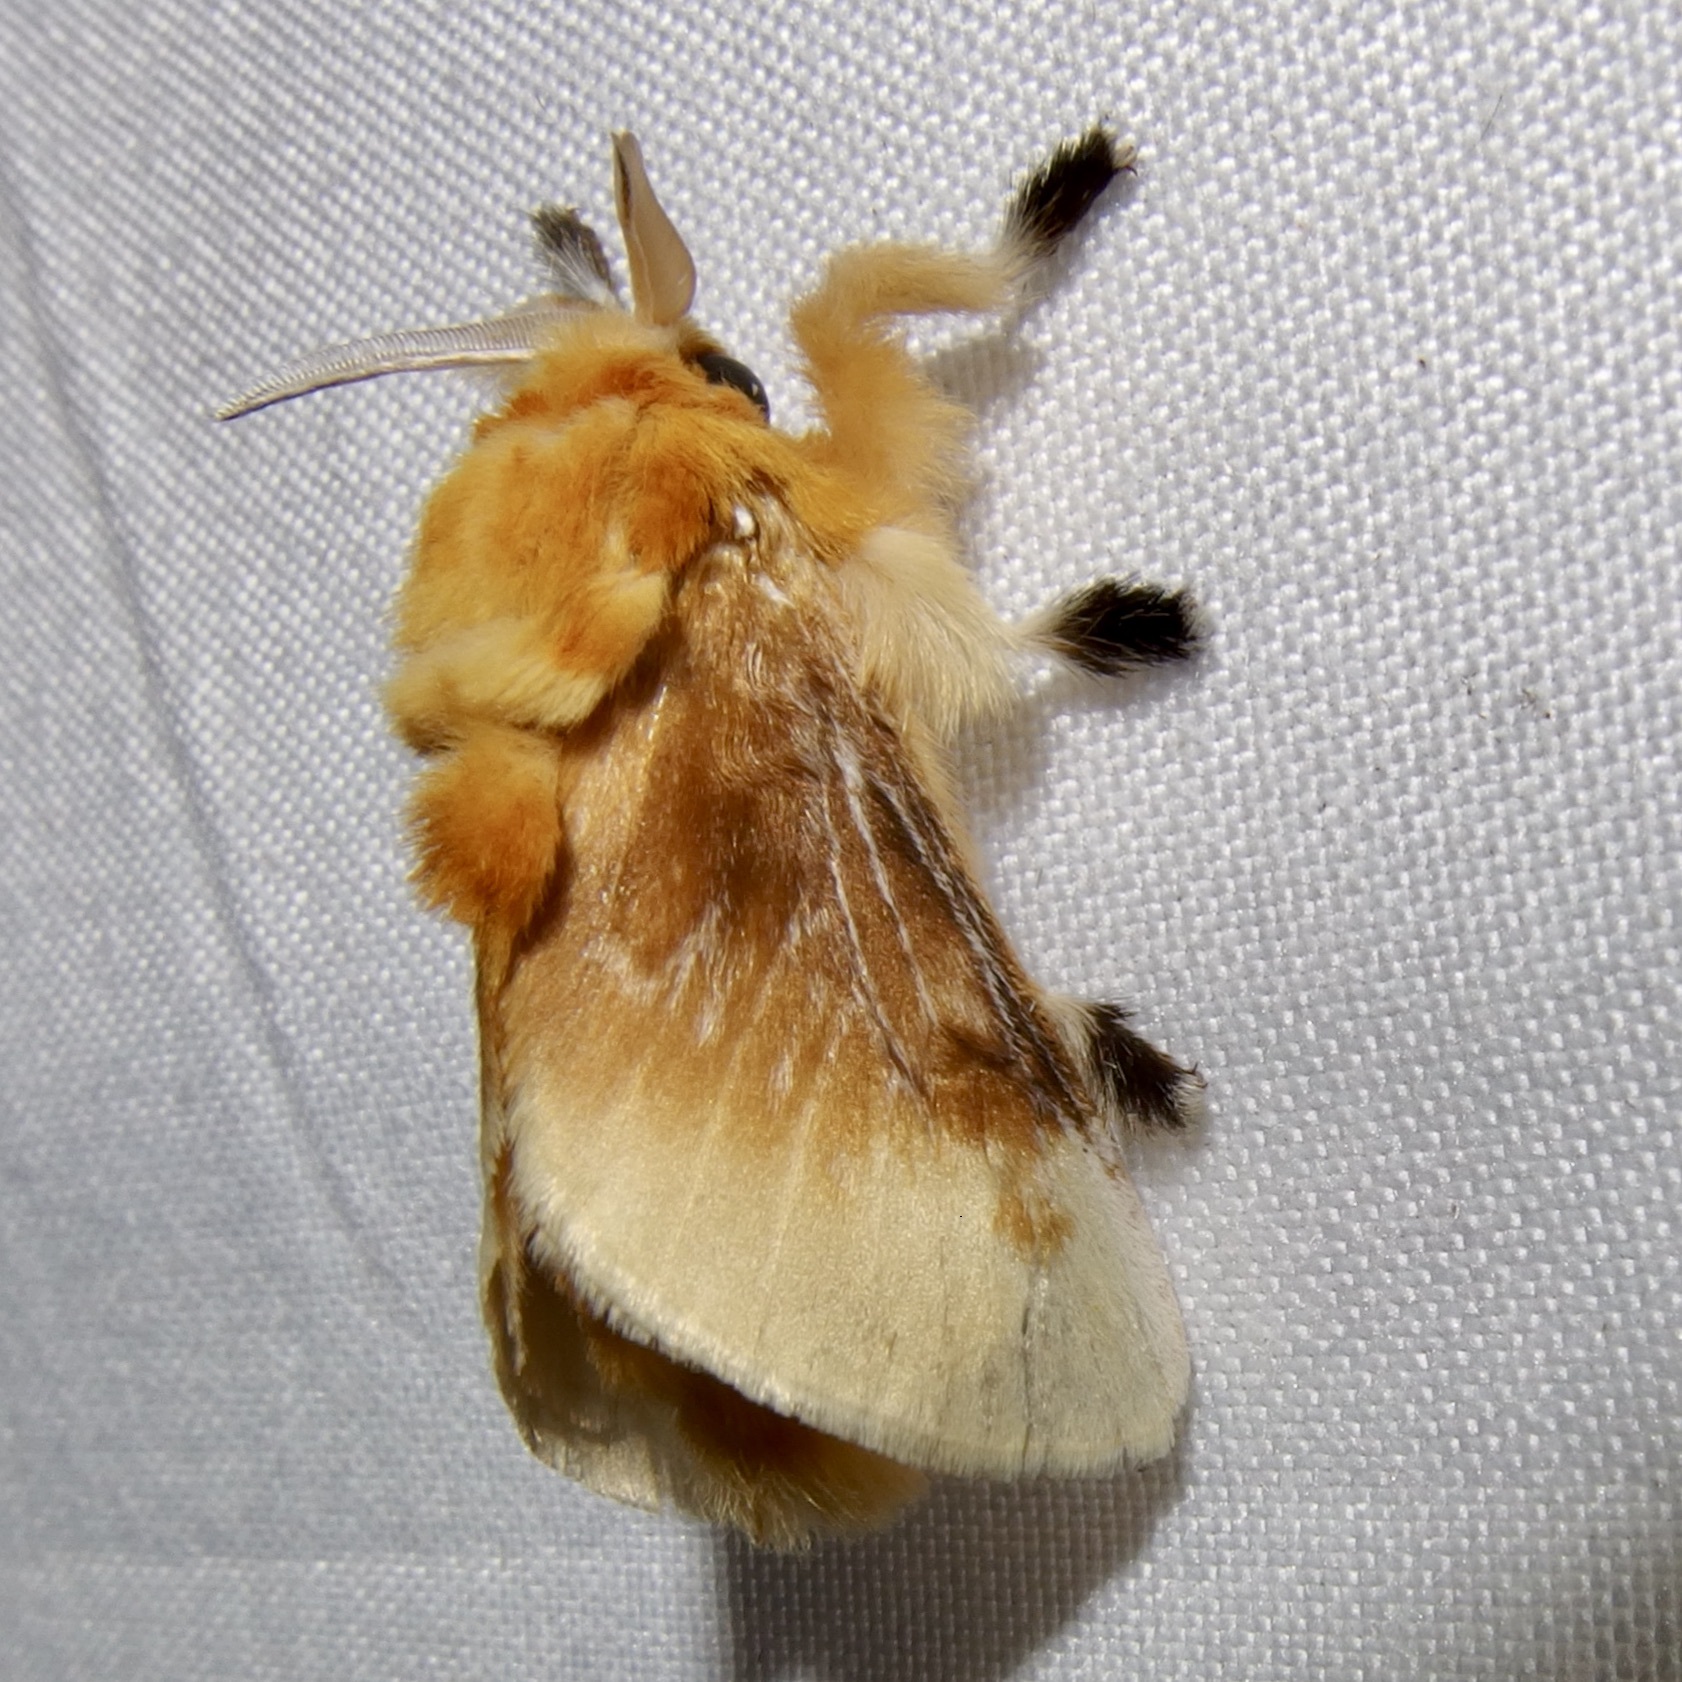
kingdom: Animalia
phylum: Arthropoda
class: Insecta
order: Lepidoptera
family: Megalopygidae
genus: Megalopyge
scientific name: Megalopyge opercularis
